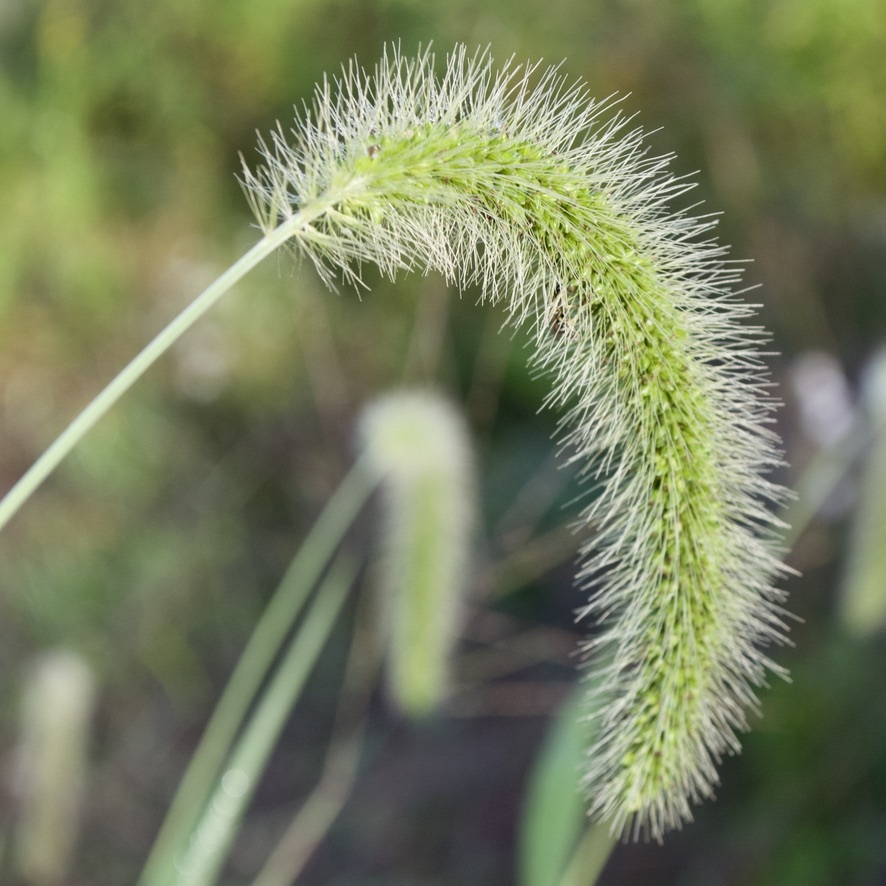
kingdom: Plantae
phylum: Tracheophyta
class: Liliopsida
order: Poales
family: Poaceae
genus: Setaria
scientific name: Setaria faberi
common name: Nodding bristle-grass
